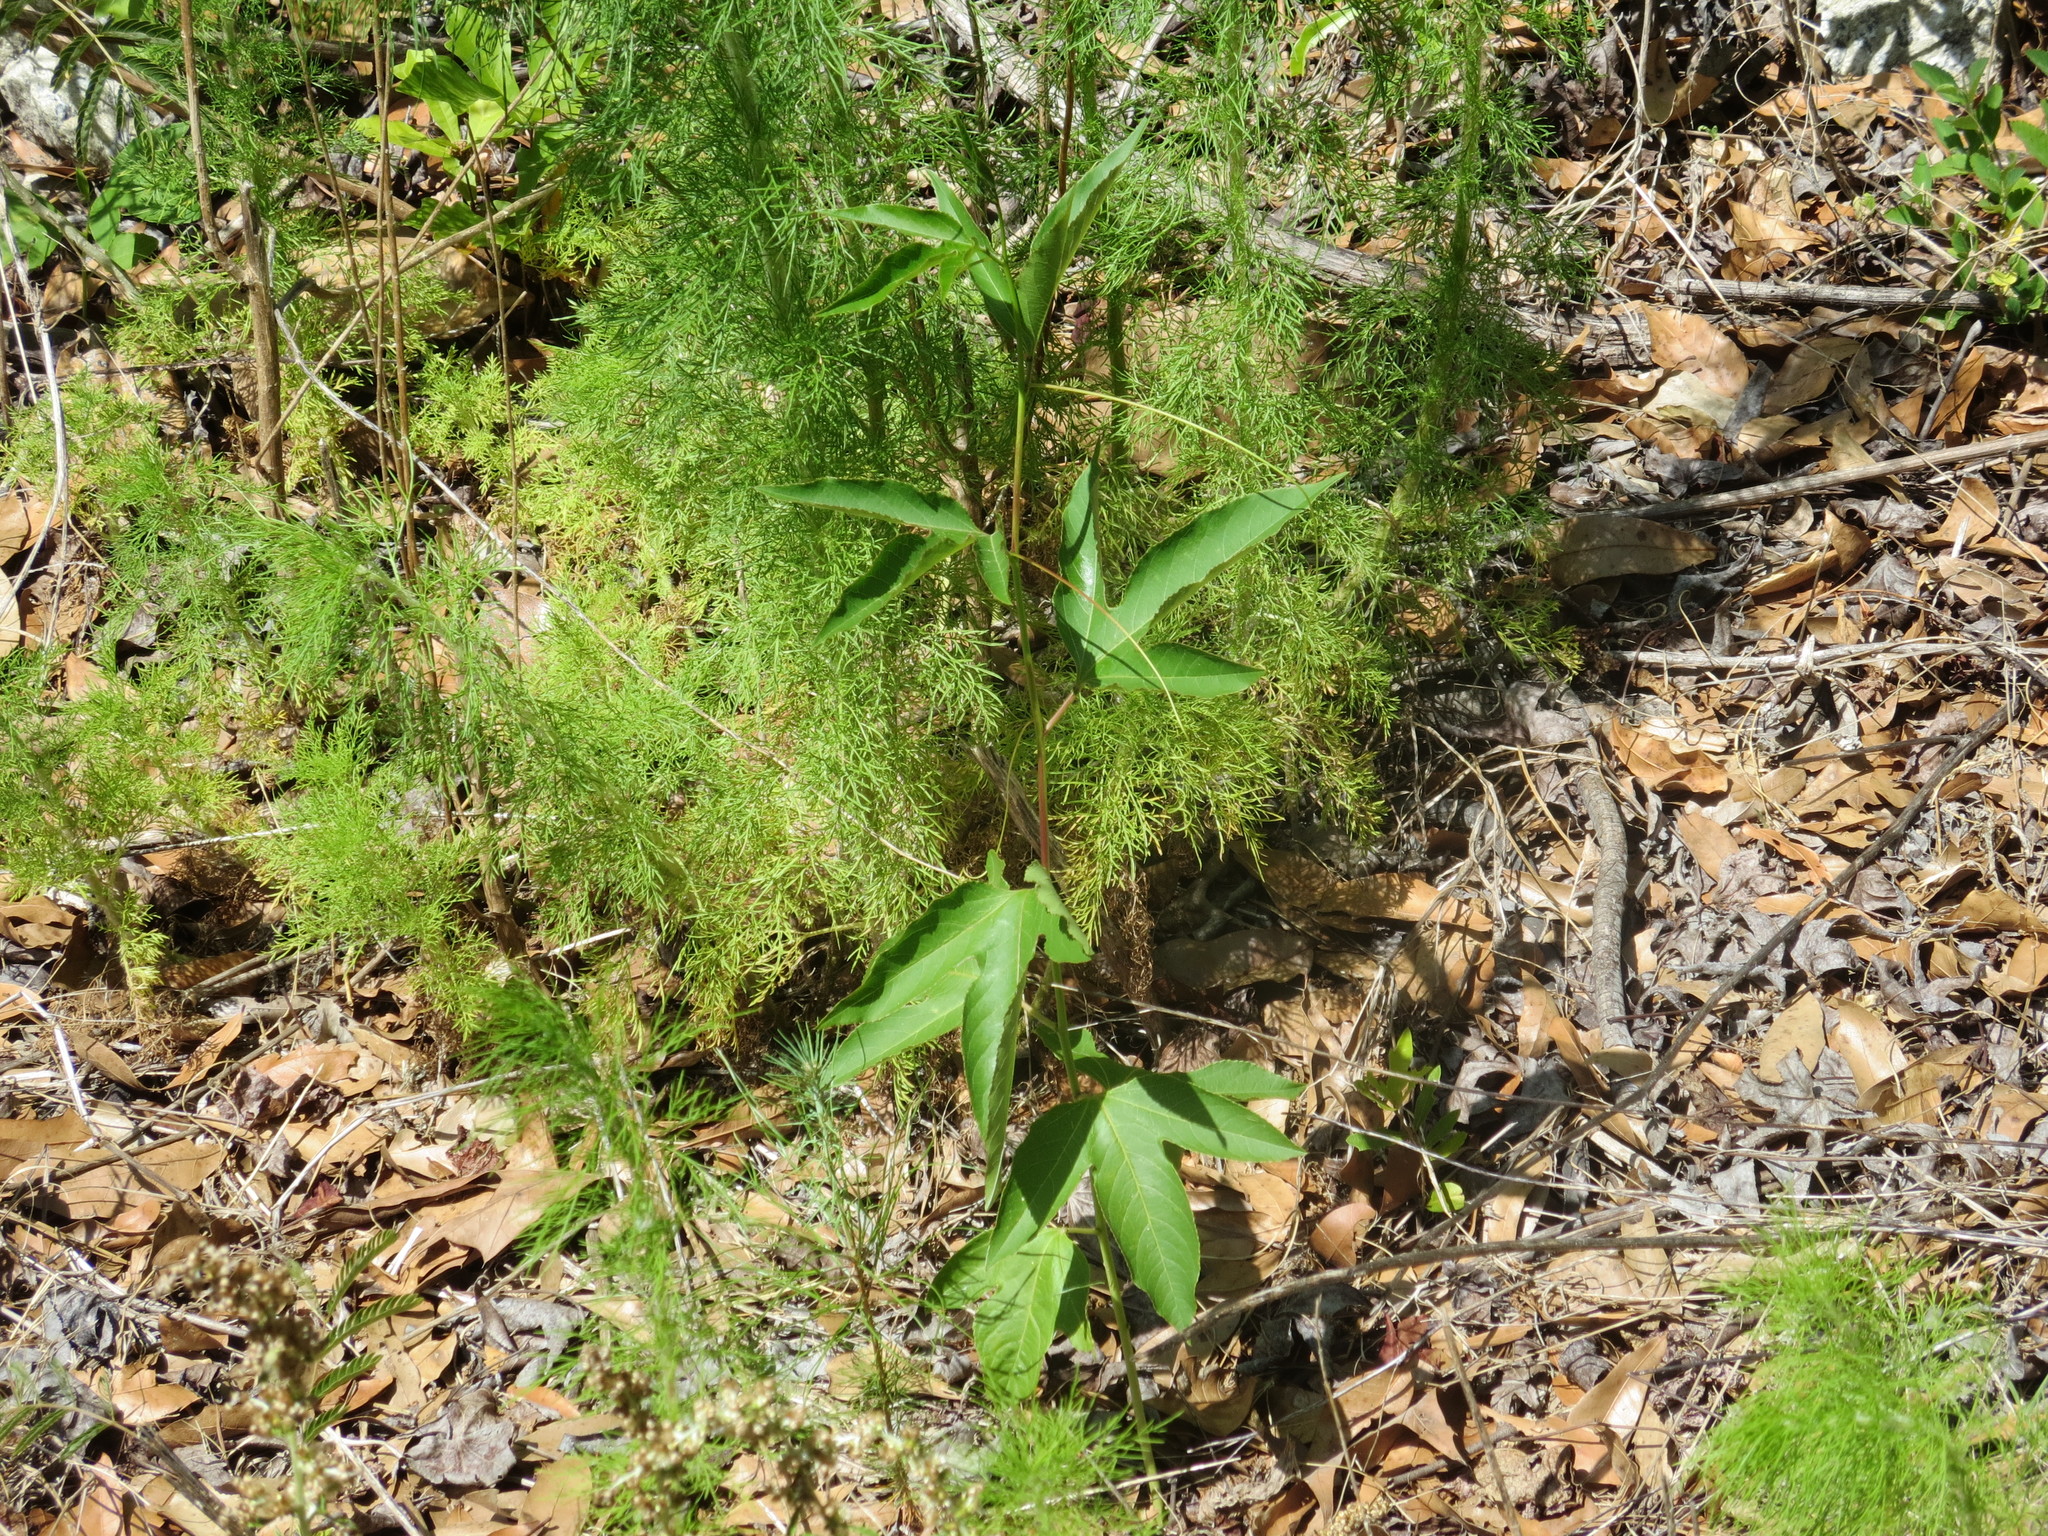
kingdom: Plantae
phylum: Tracheophyta
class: Magnoliopsida
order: Malpighiales
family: Passifloraceae
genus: Passiflora
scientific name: Passiflora incarnata
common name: Apricot-vine
